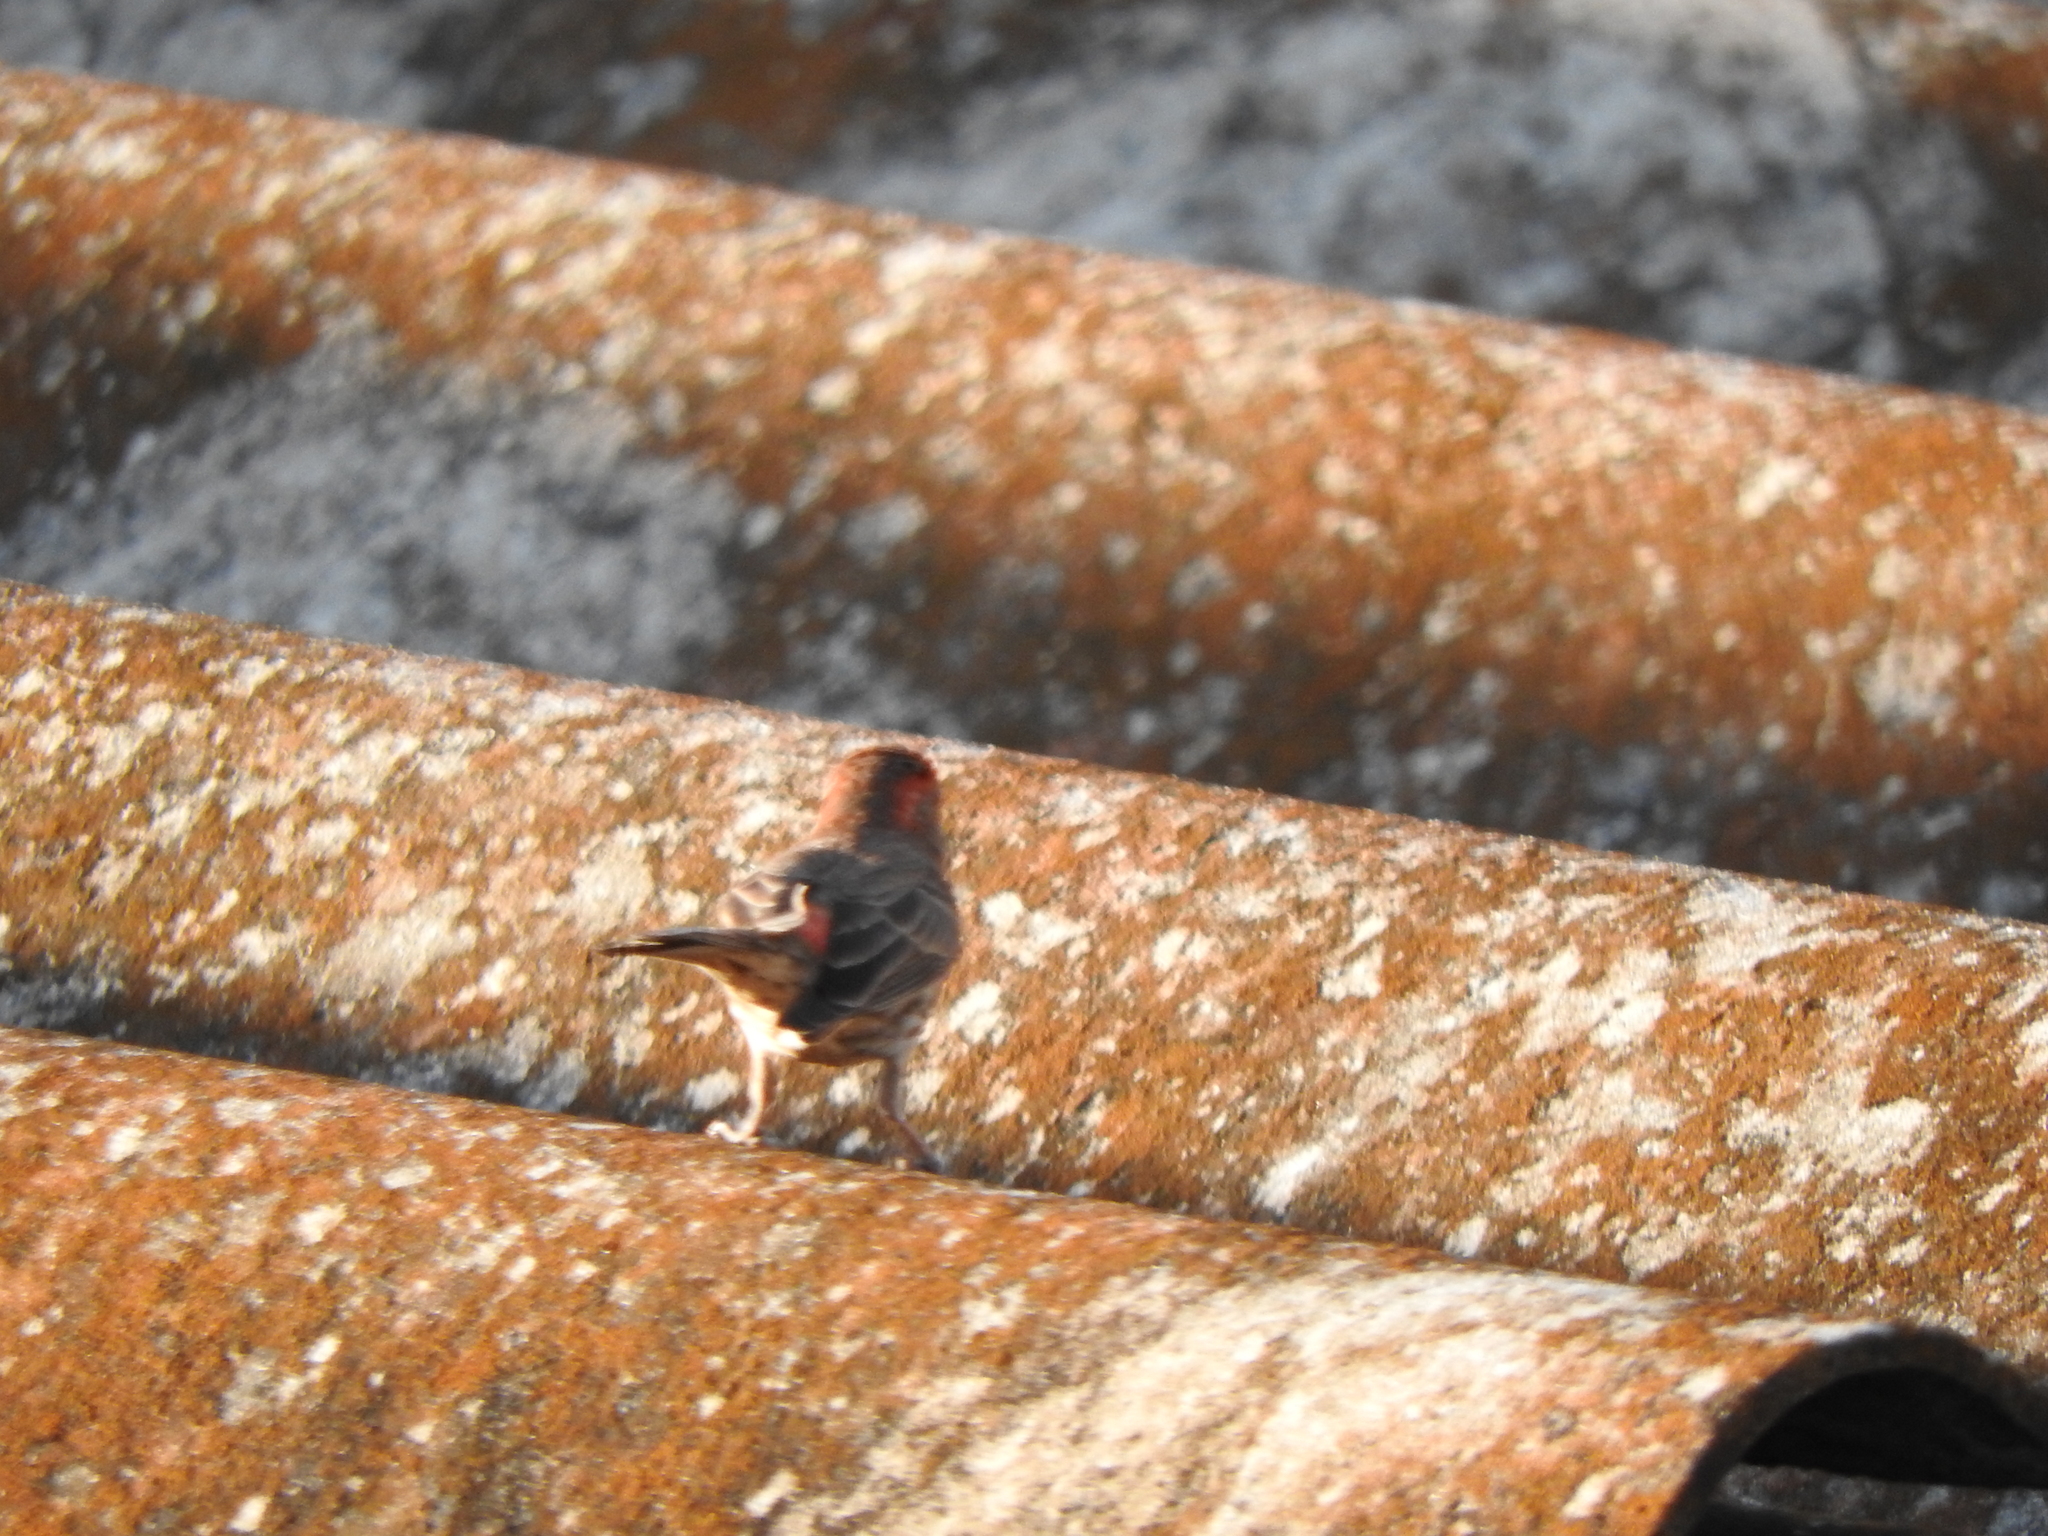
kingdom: Animalia
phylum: Chordata
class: Aves
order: Passeriformes
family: Fringillidae
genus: Haemorhous
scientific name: Haemorhous mexicanus
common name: House finch
